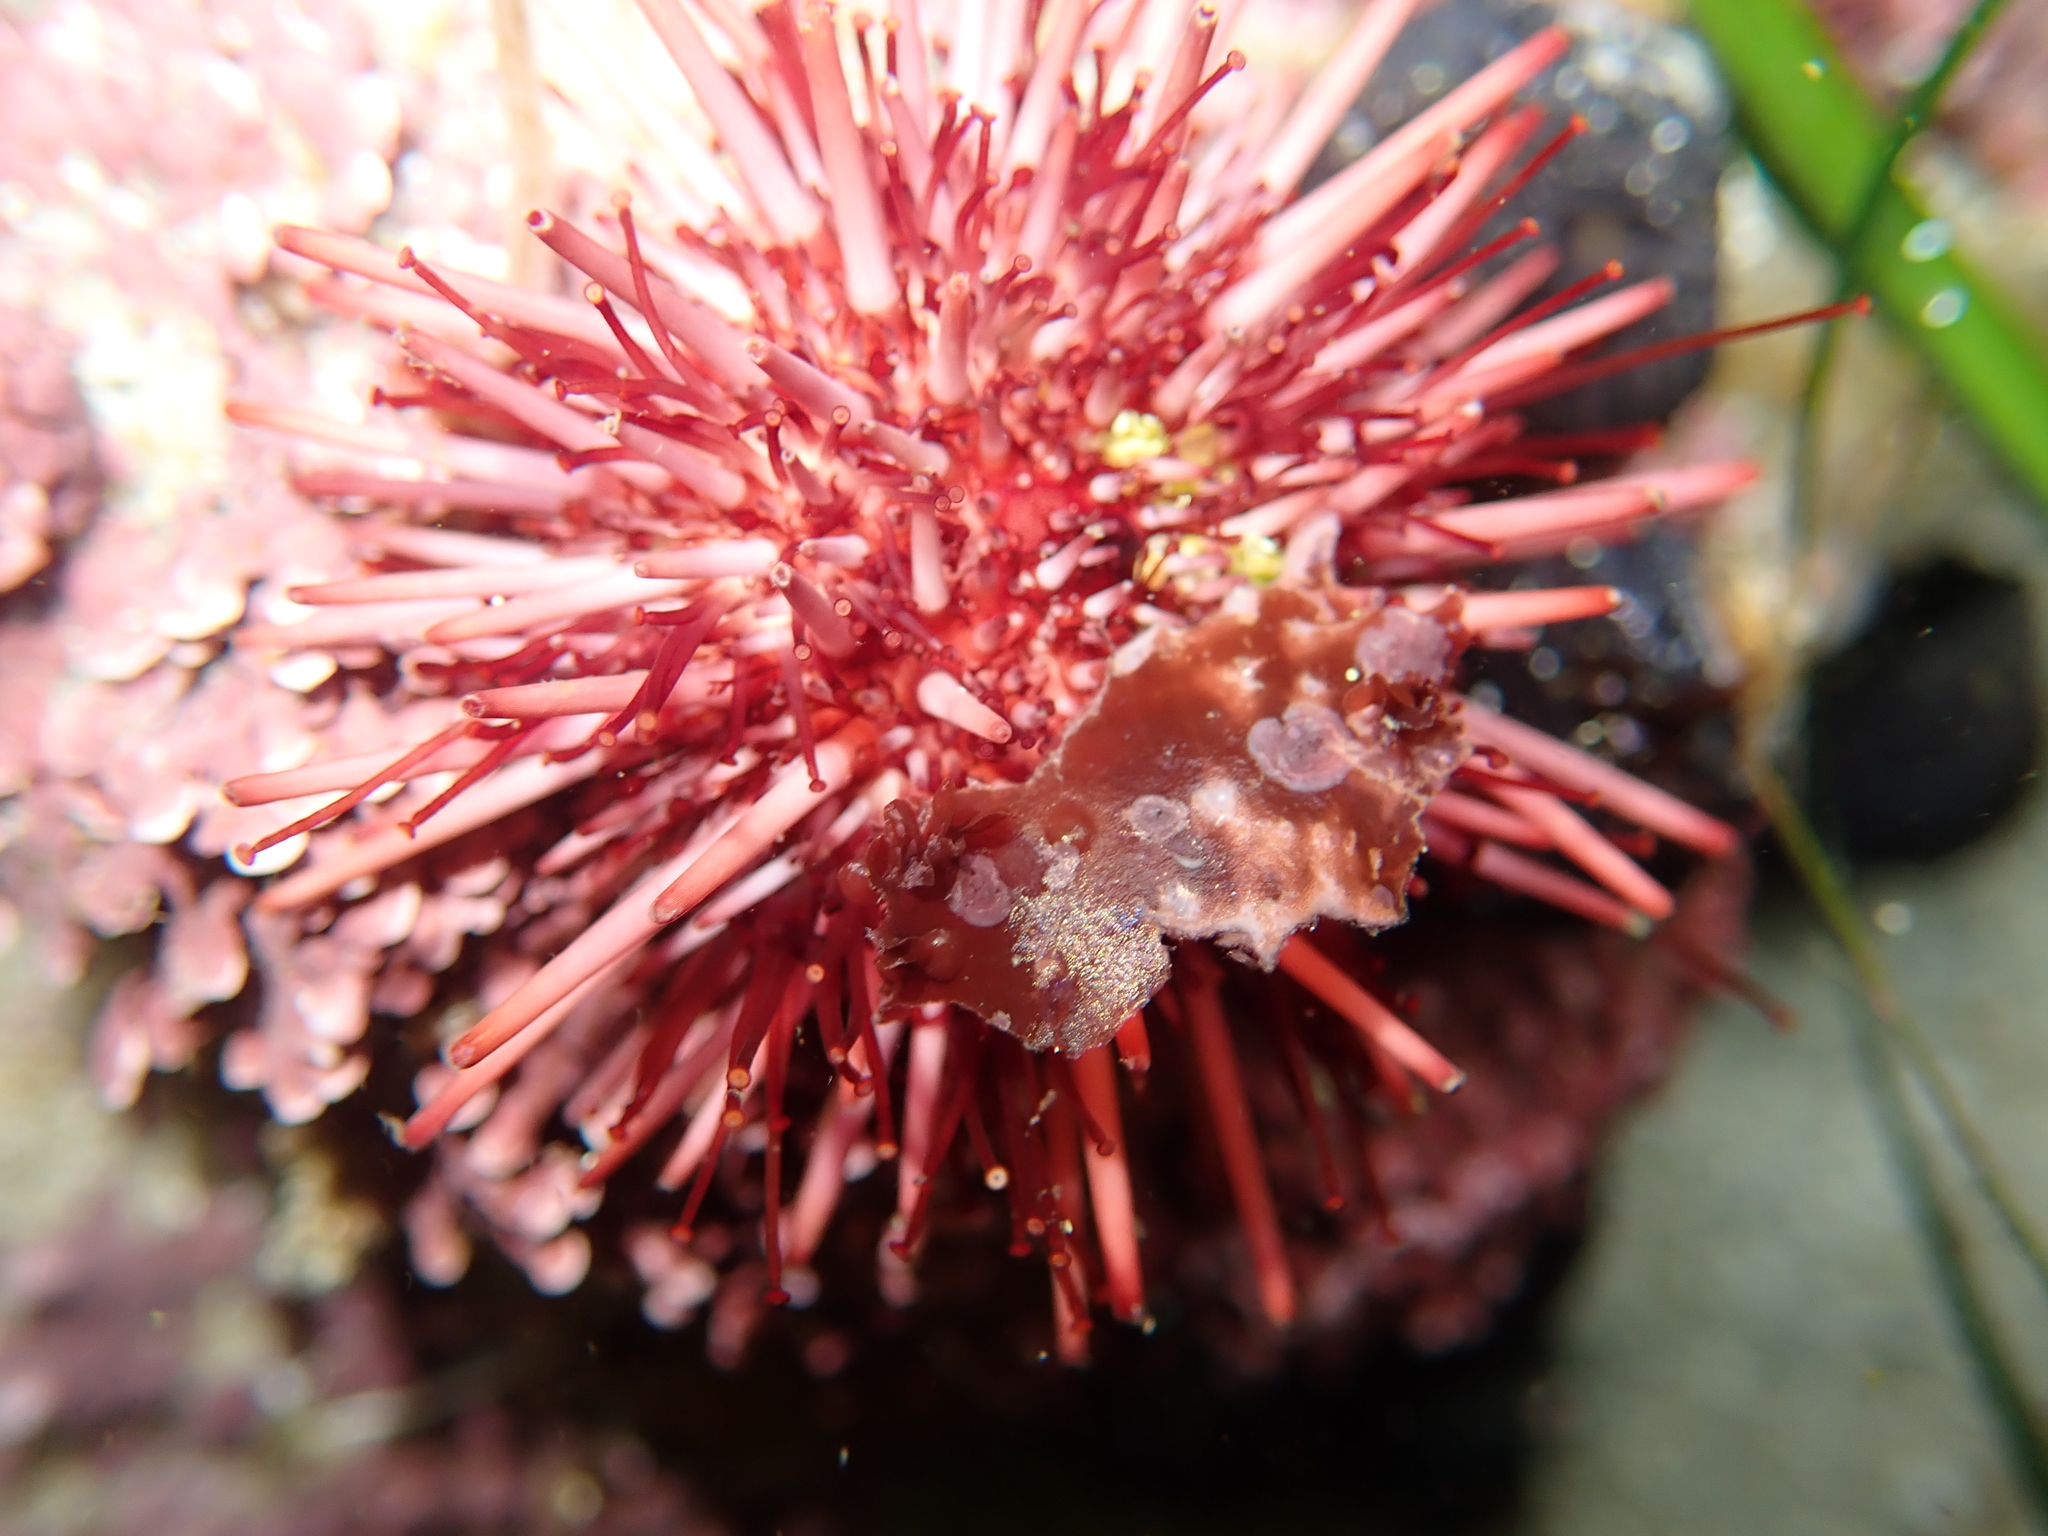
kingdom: Animalia
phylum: Echinodermata
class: Echinoidea
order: Camarodonta
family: Strongylocentrotidae
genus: Mesocentrotus
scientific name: Mesocentrotus franciscanus
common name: Red sea urchin
